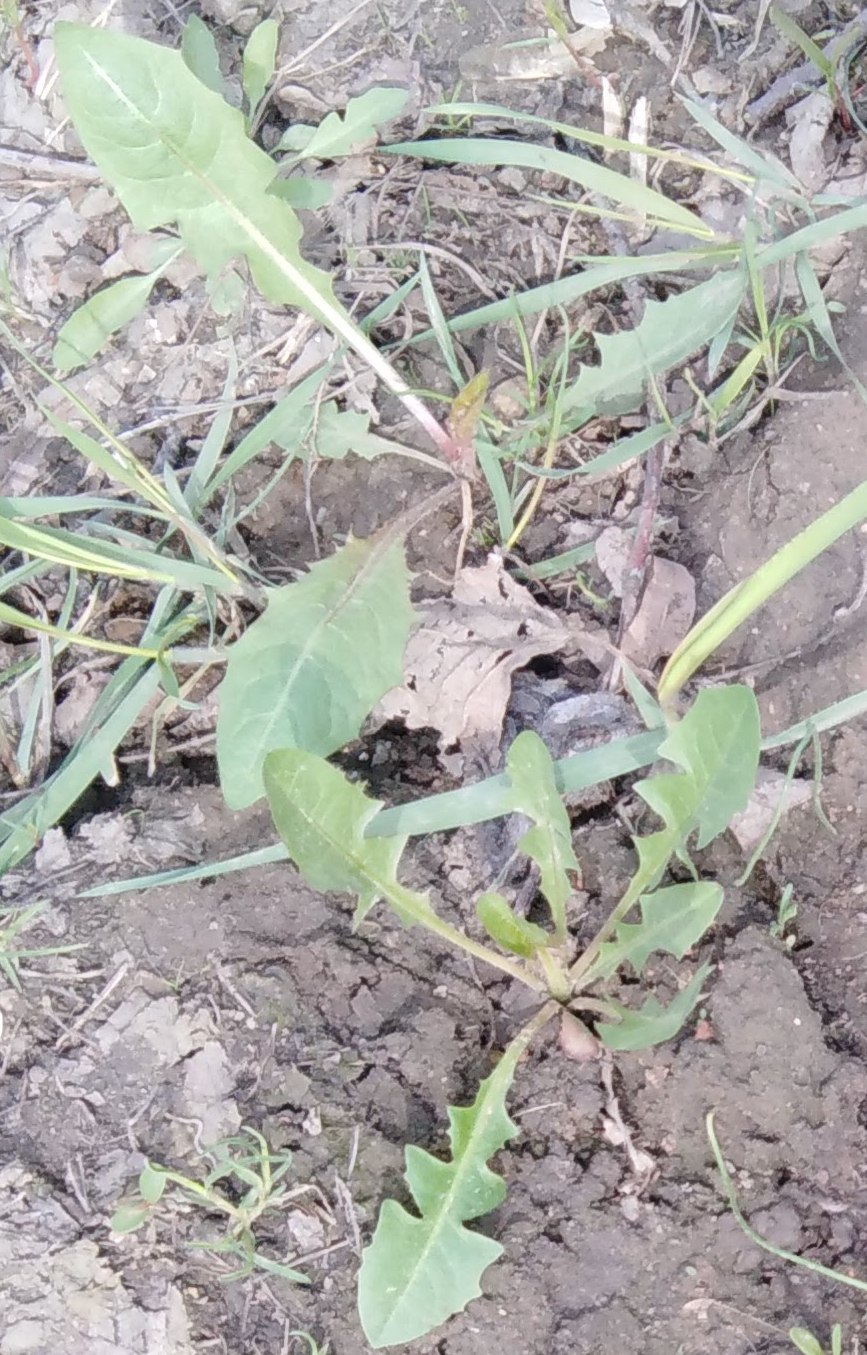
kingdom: Plantae
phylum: Tracheophyta
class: Magnoliopsida
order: Asterales
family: Asteraceae
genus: Taraxacum
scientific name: Taraxacum officinale
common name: Common dandelion
